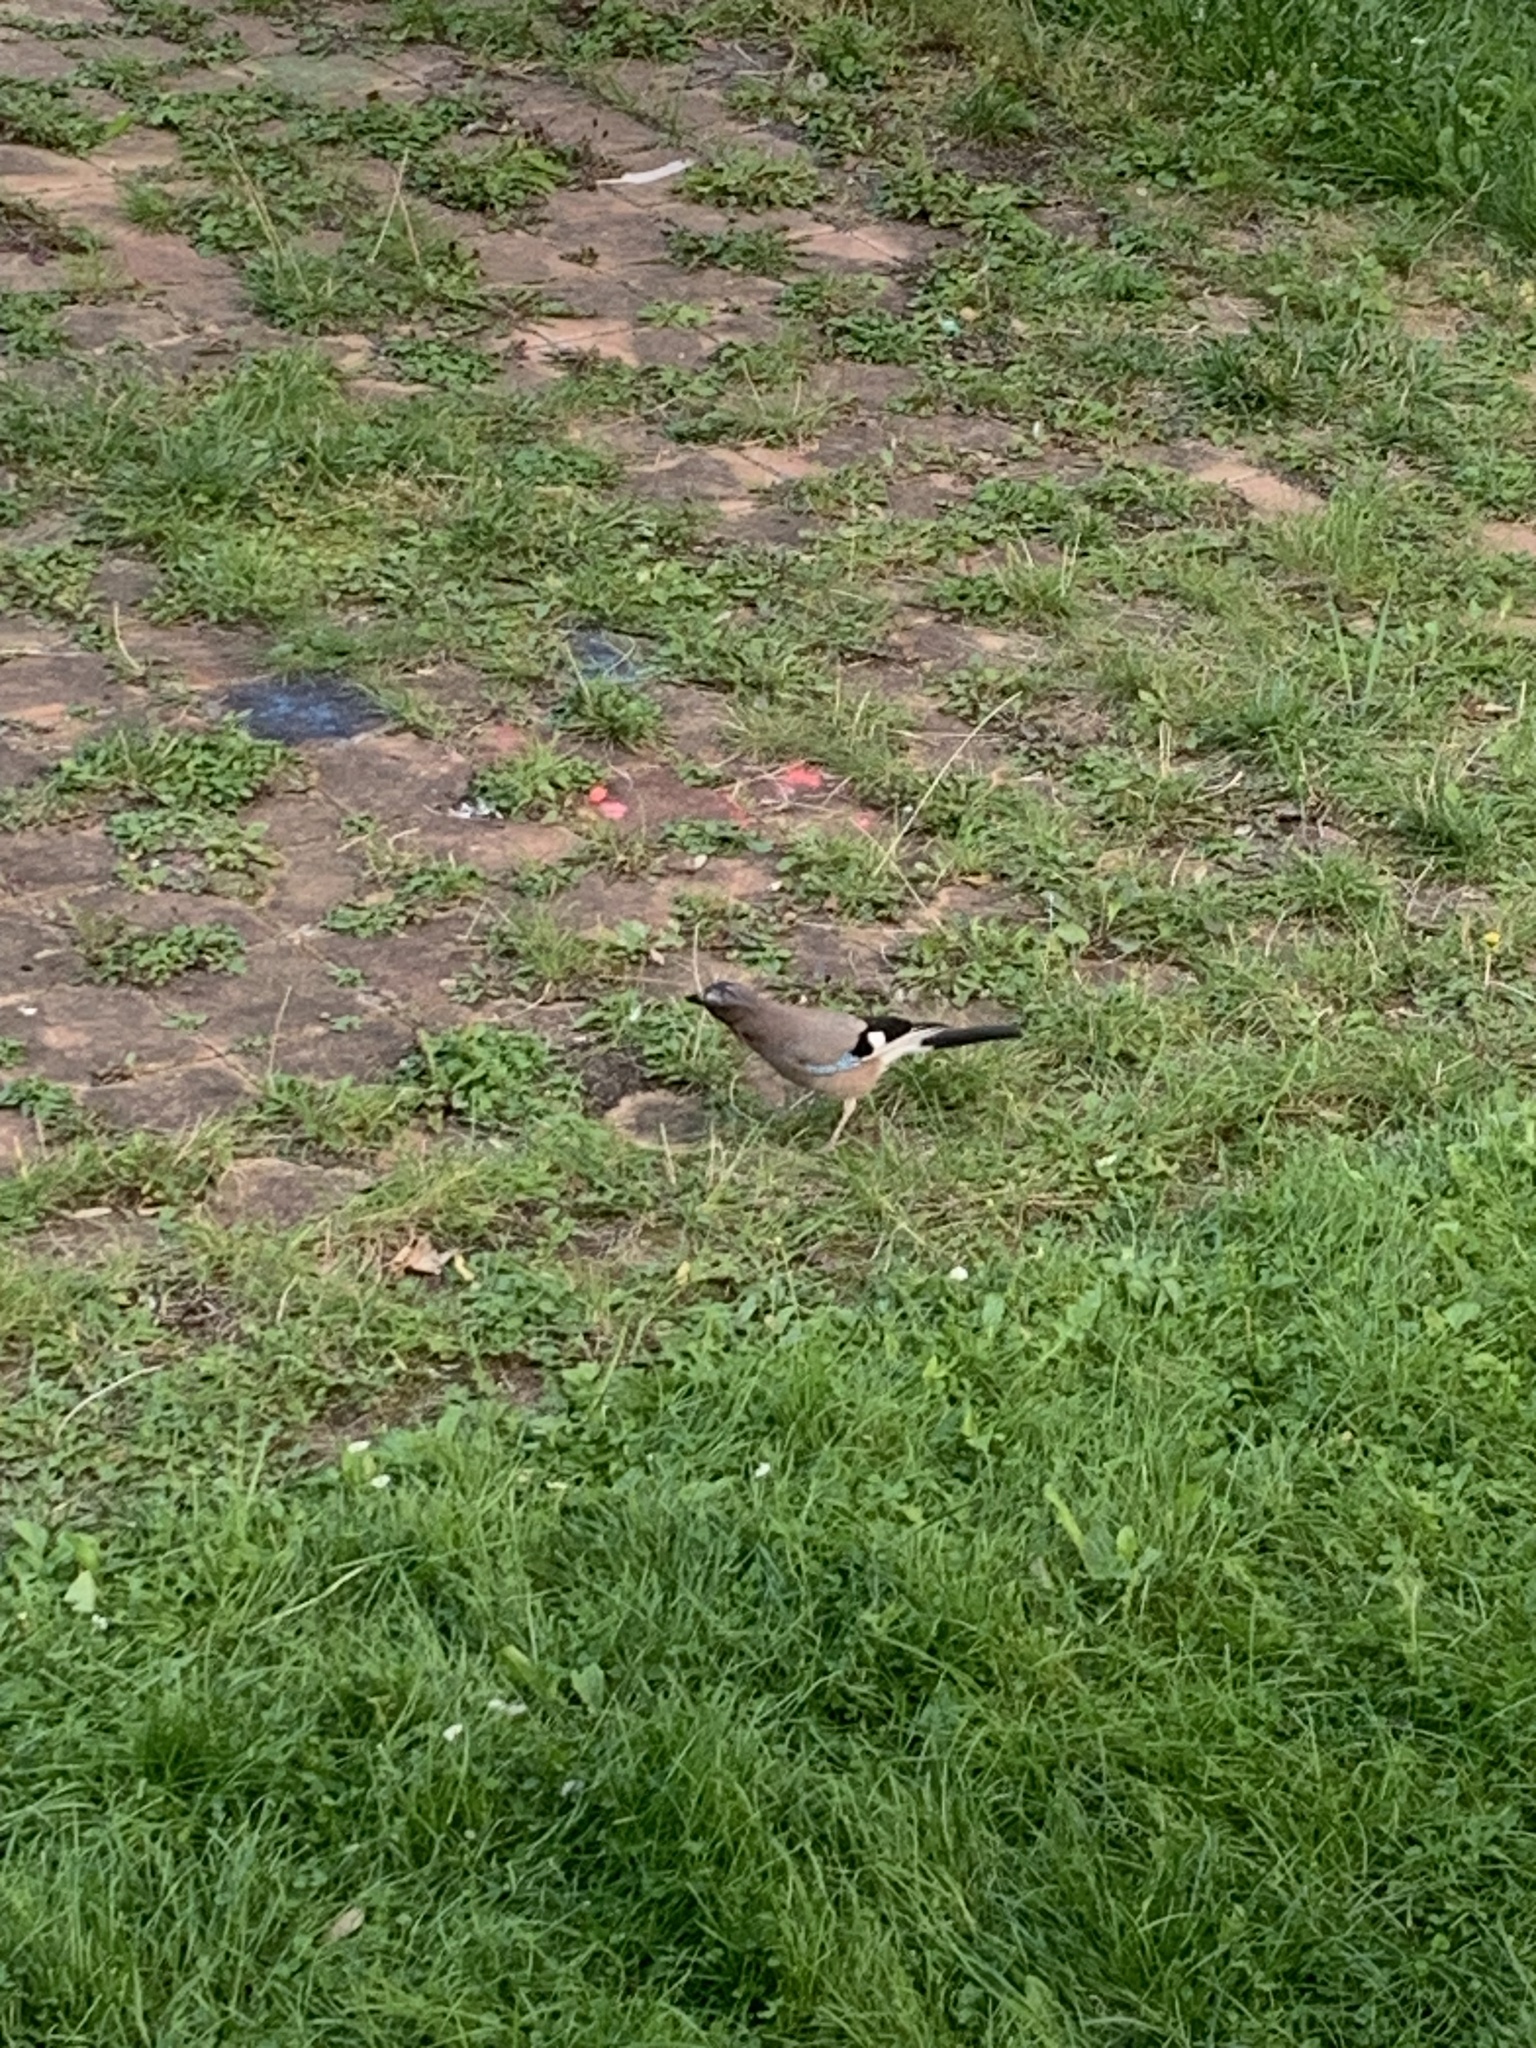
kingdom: Animalia
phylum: Chordata
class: Aves
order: Passeriformes
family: Corvidae
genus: Garrulus
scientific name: Garrulus glandarius
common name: Eurasian jay
